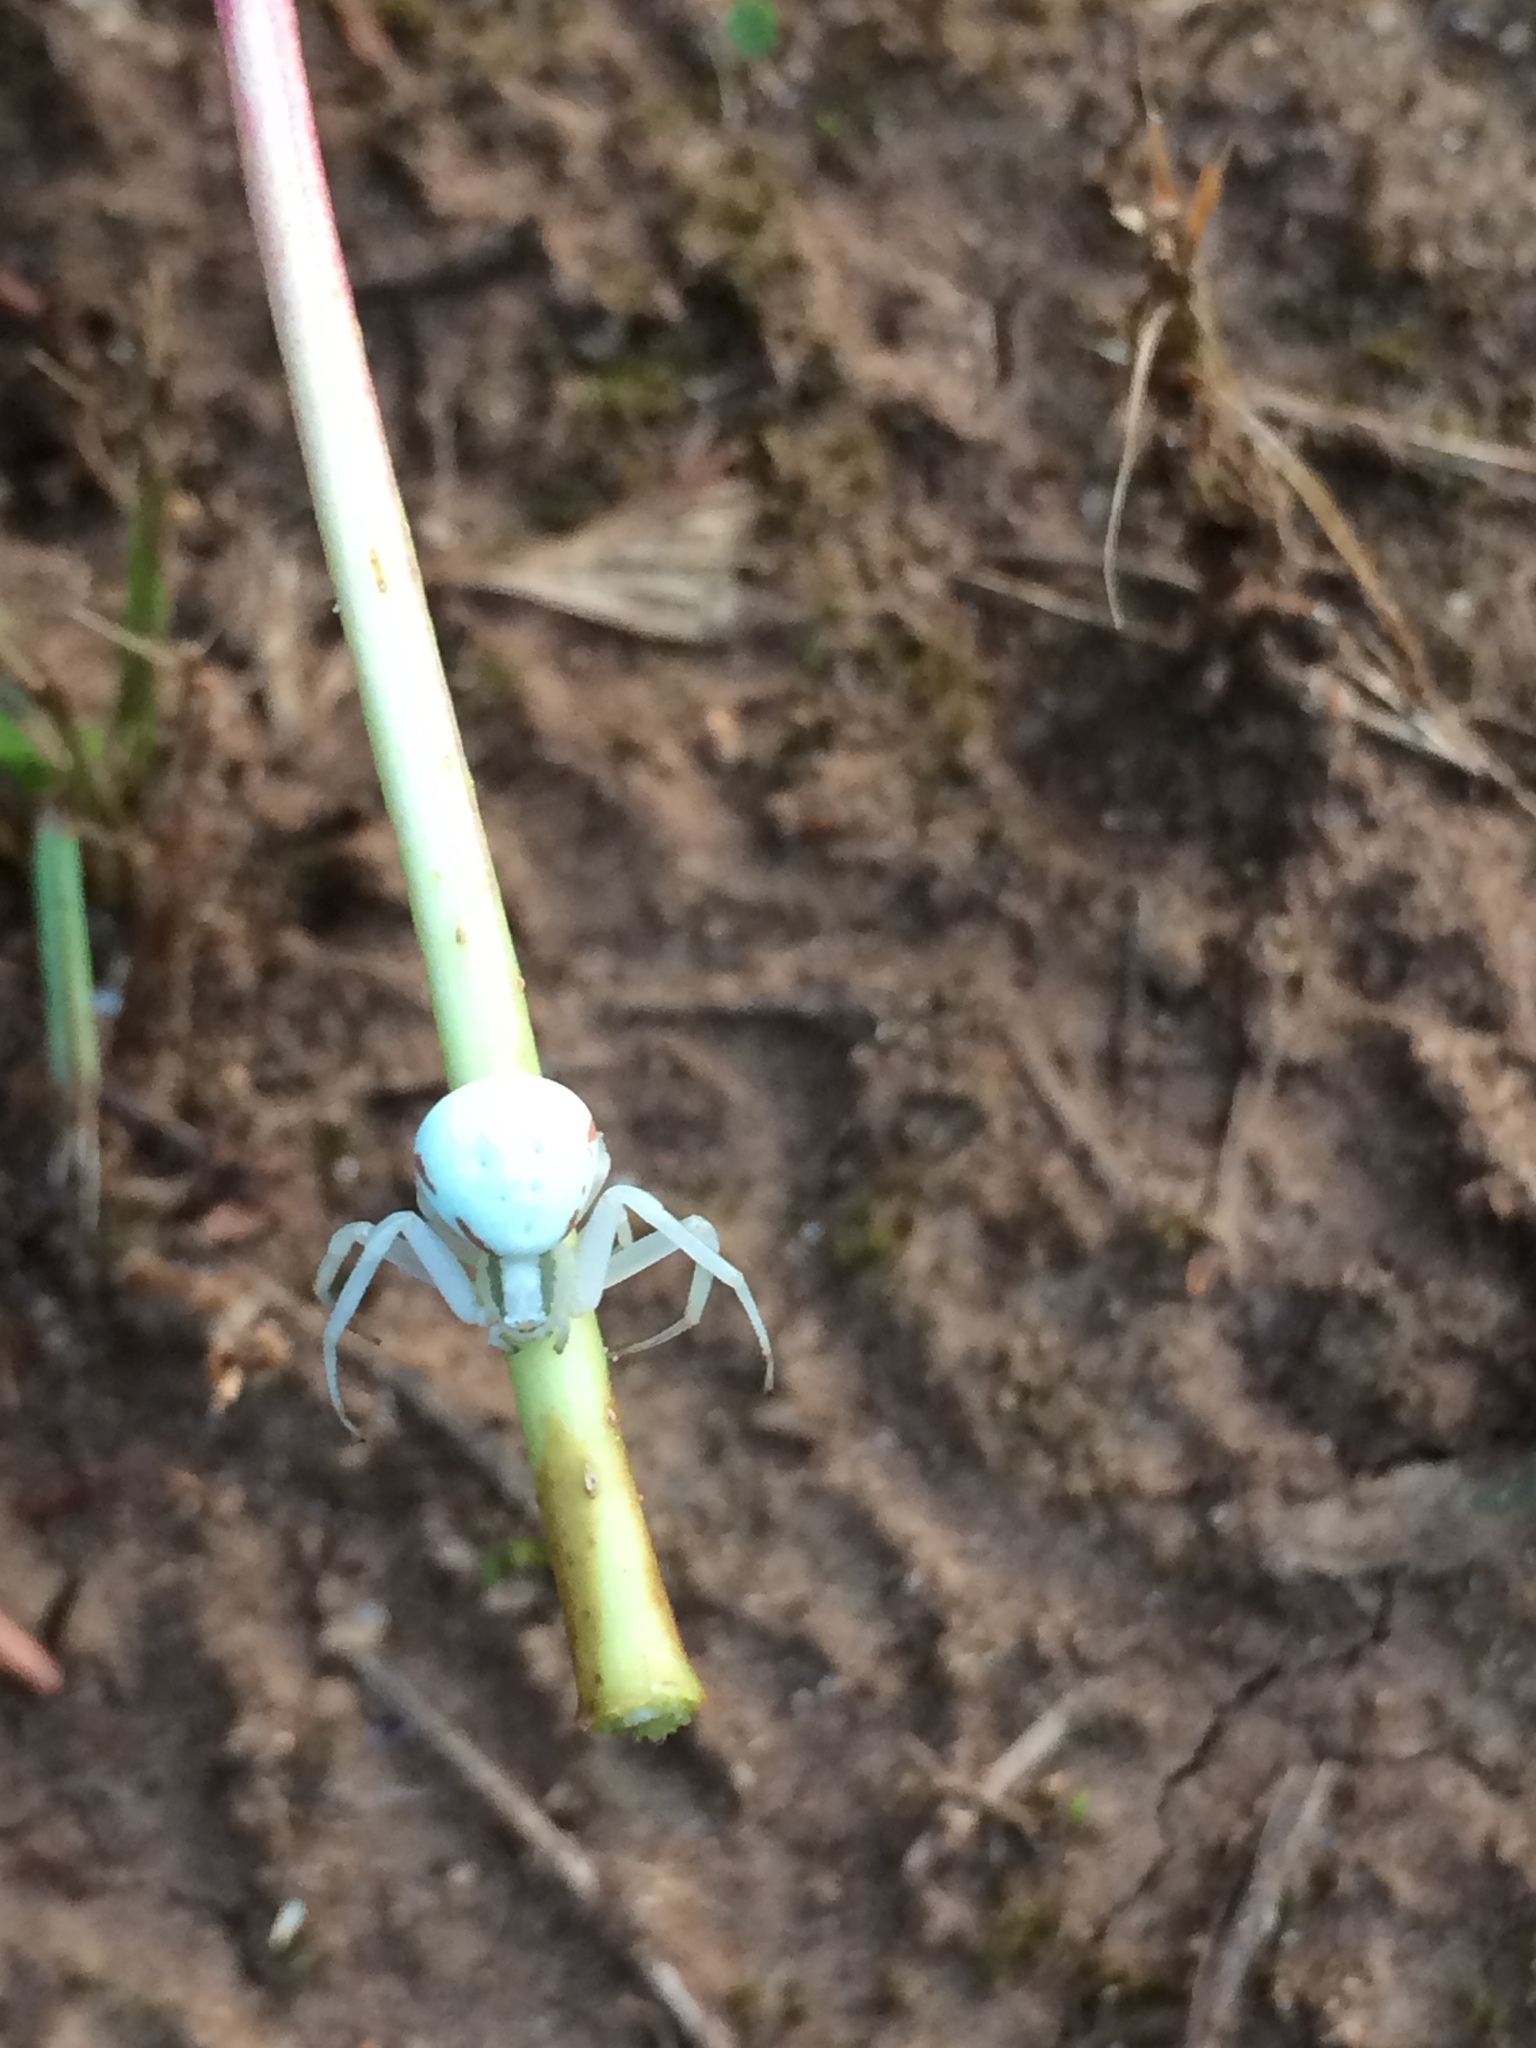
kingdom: Animalia
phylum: Arthropoda
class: Arachnida
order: Araneae
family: Thomisidae
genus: Misumena
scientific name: Misumena vatia
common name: Goldenrod crab spider
